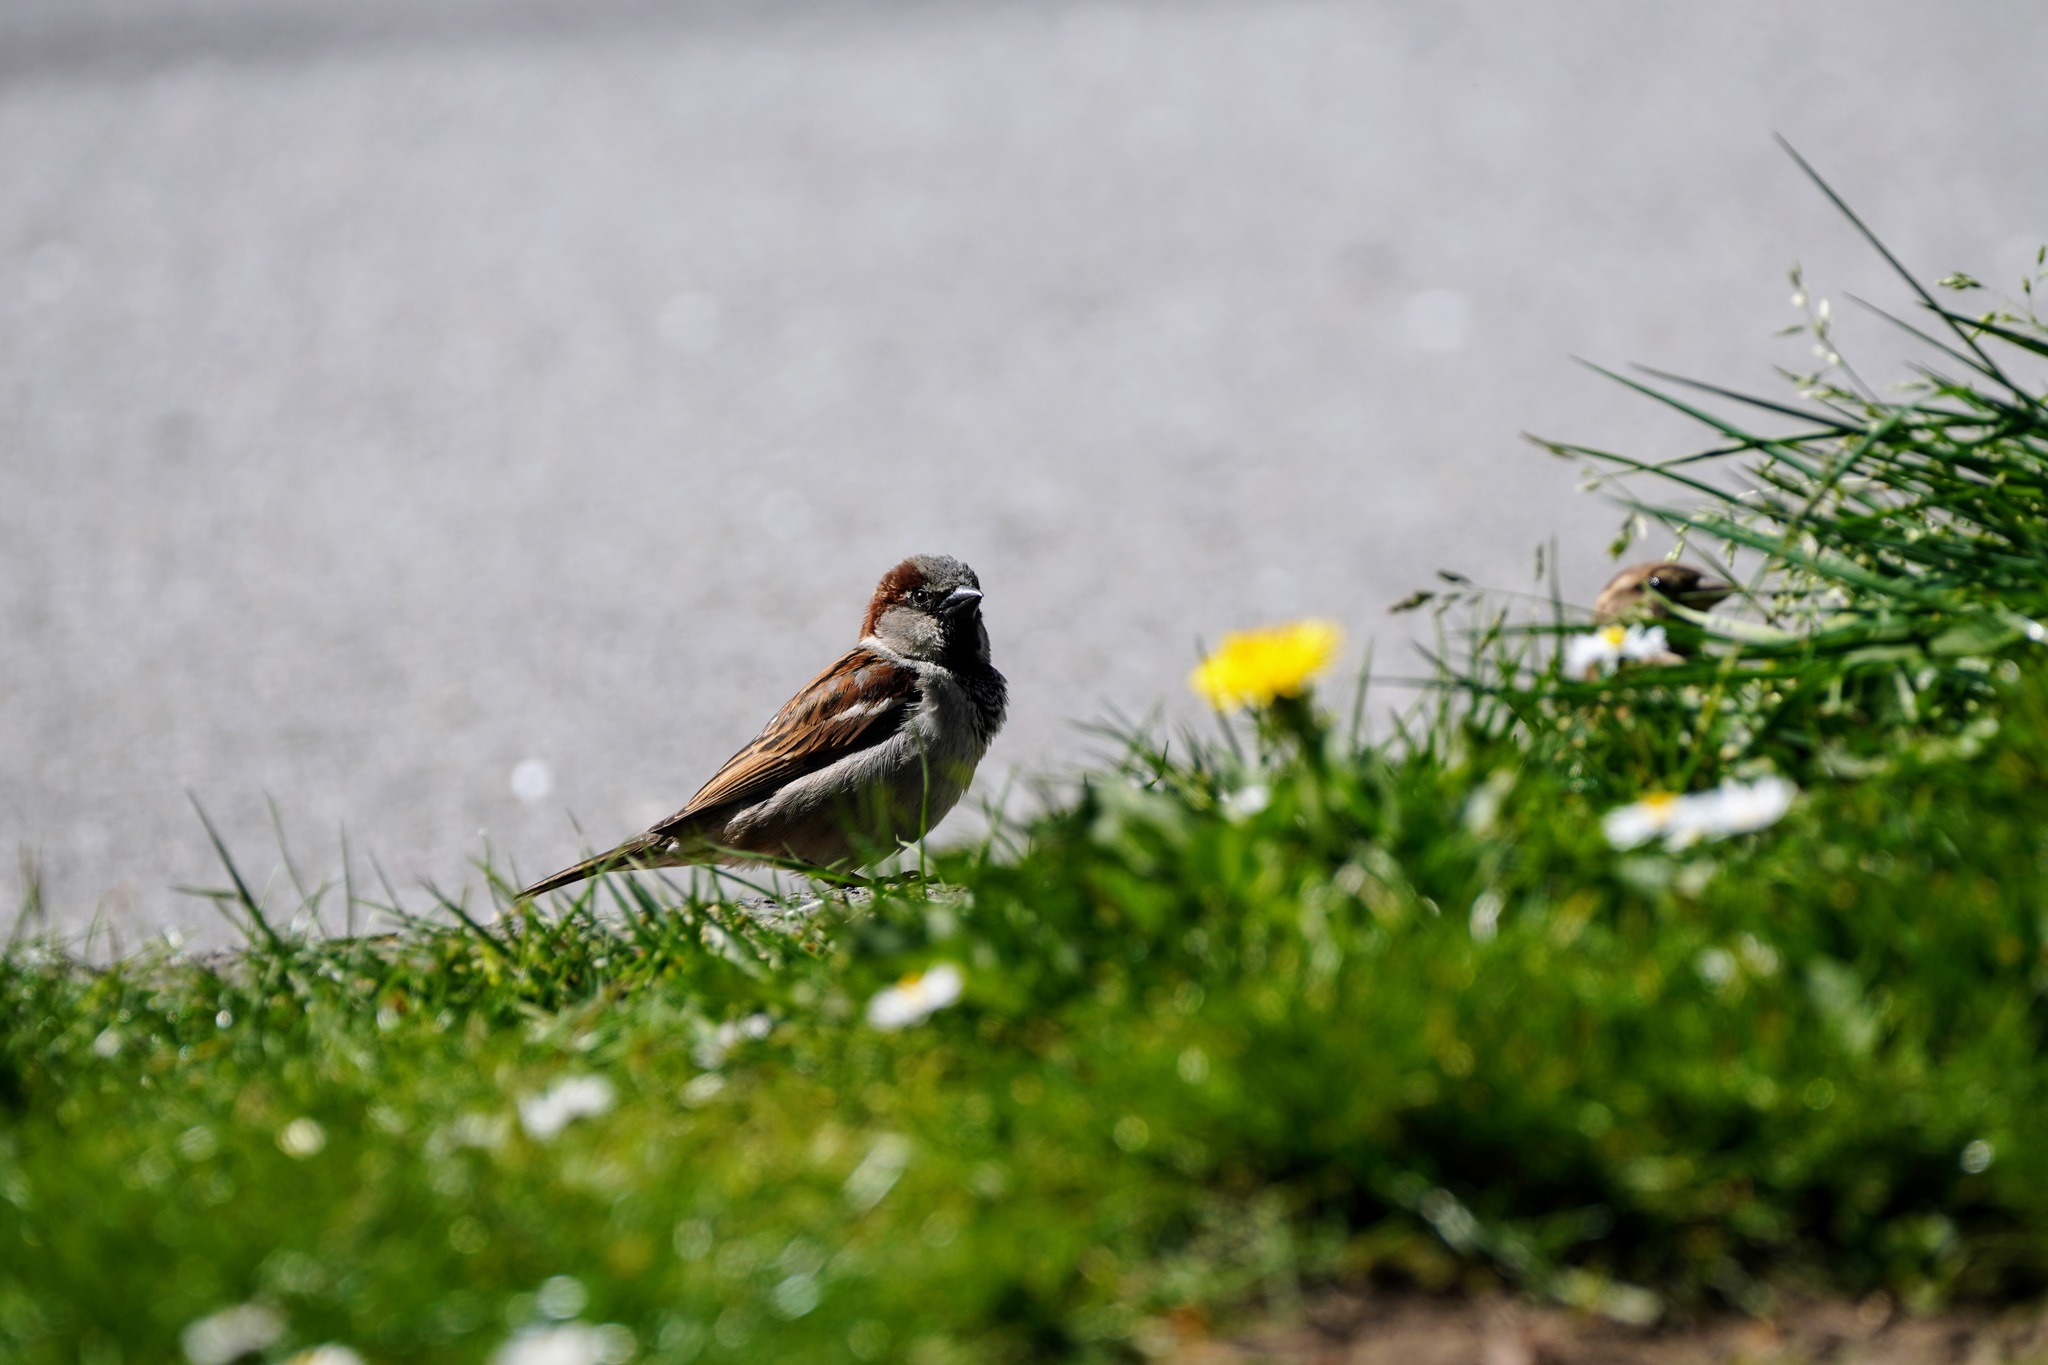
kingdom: Animalia
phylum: Chordata
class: Aves
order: Passeriformes
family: Passeridae
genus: Passer
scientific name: Passer domesticus
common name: House sparrow
